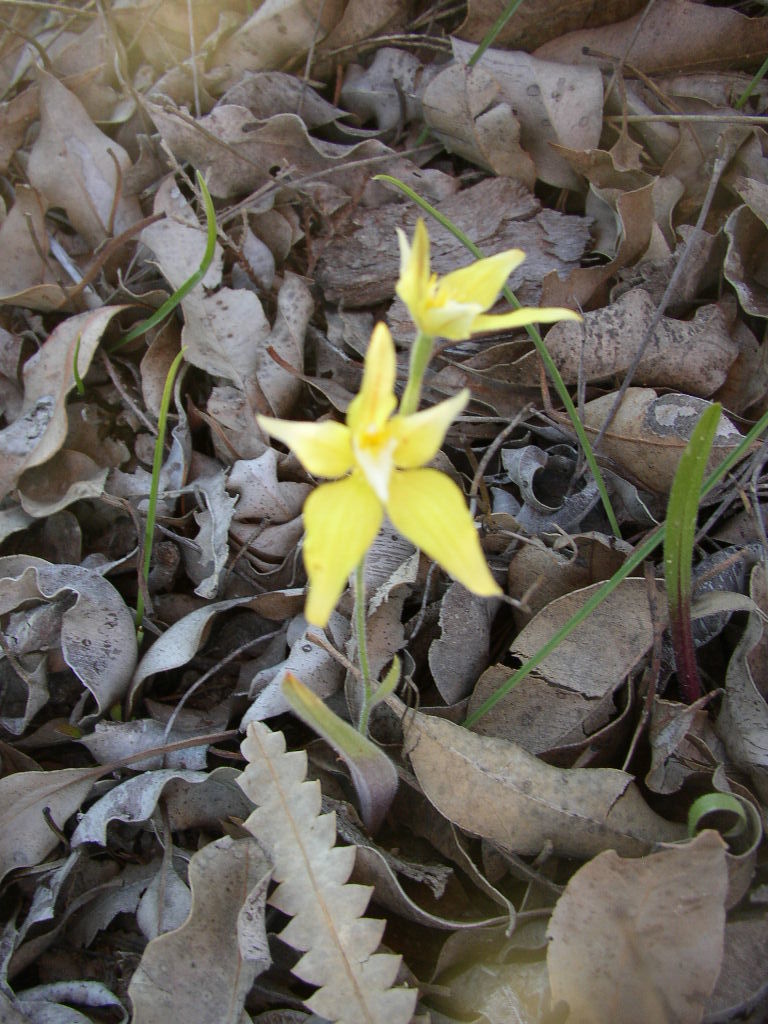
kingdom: Plantae
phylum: Tracheophyta
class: Liliopsida
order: Asparagales
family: Orchidaceae
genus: Caladenia
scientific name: Caladenia flava
